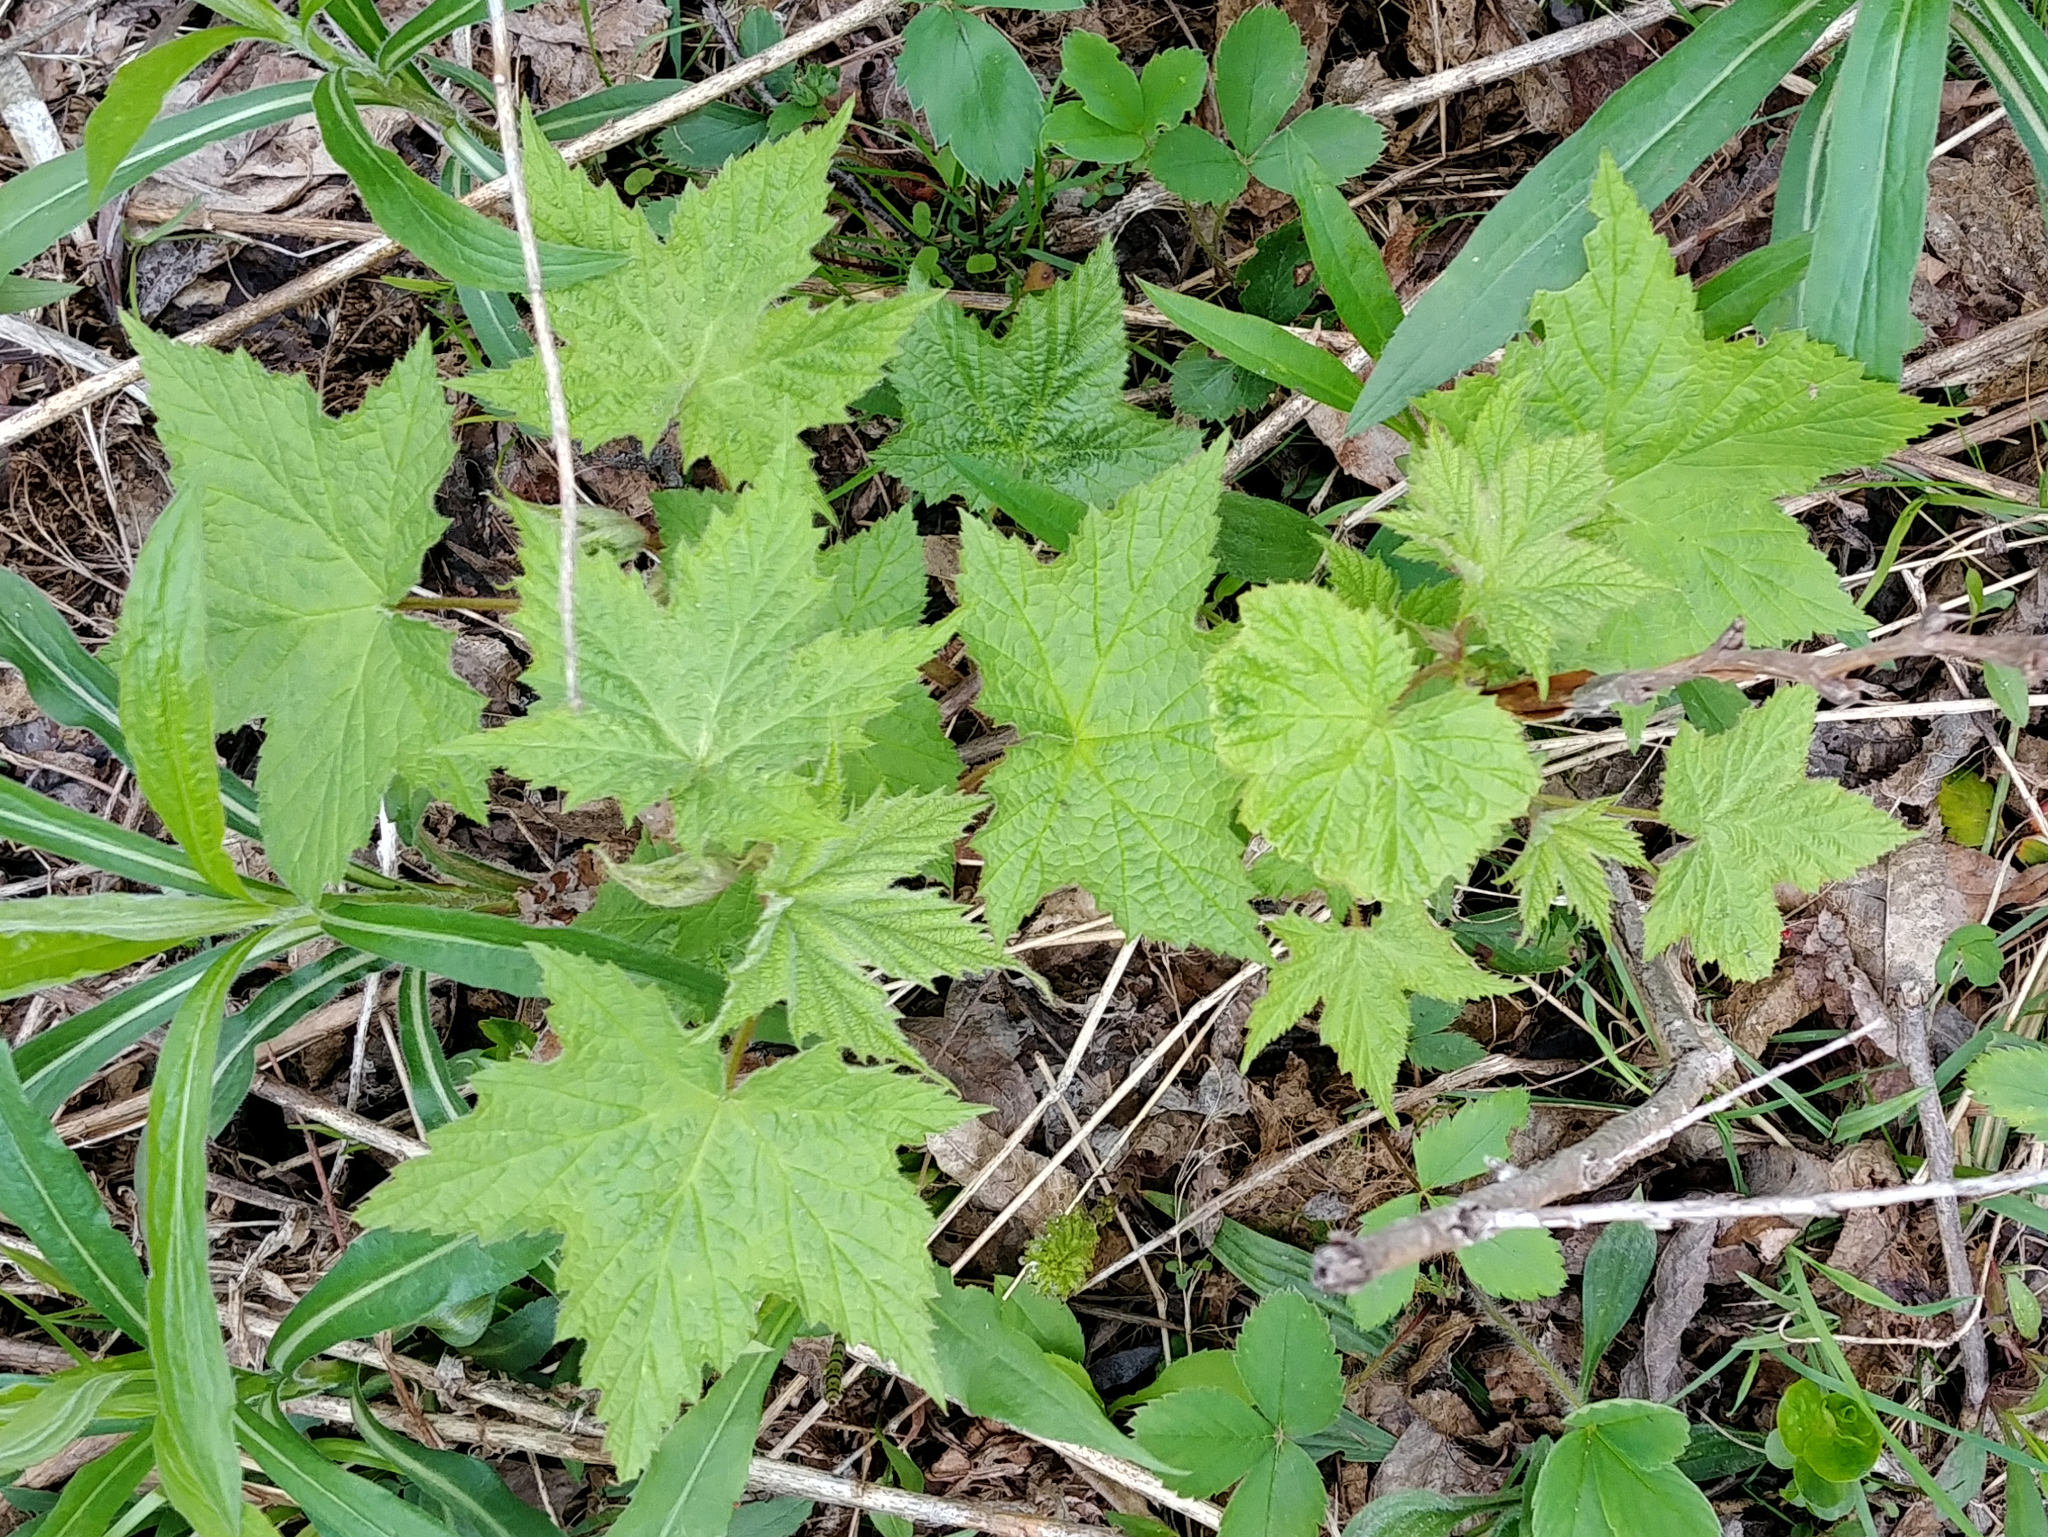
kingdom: Plantae
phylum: Tracheophyta
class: Magnoliopsida
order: Rosales
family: Rosaceae
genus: Rubus
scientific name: Rubus odoratus
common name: Purple-flowered raspberry
